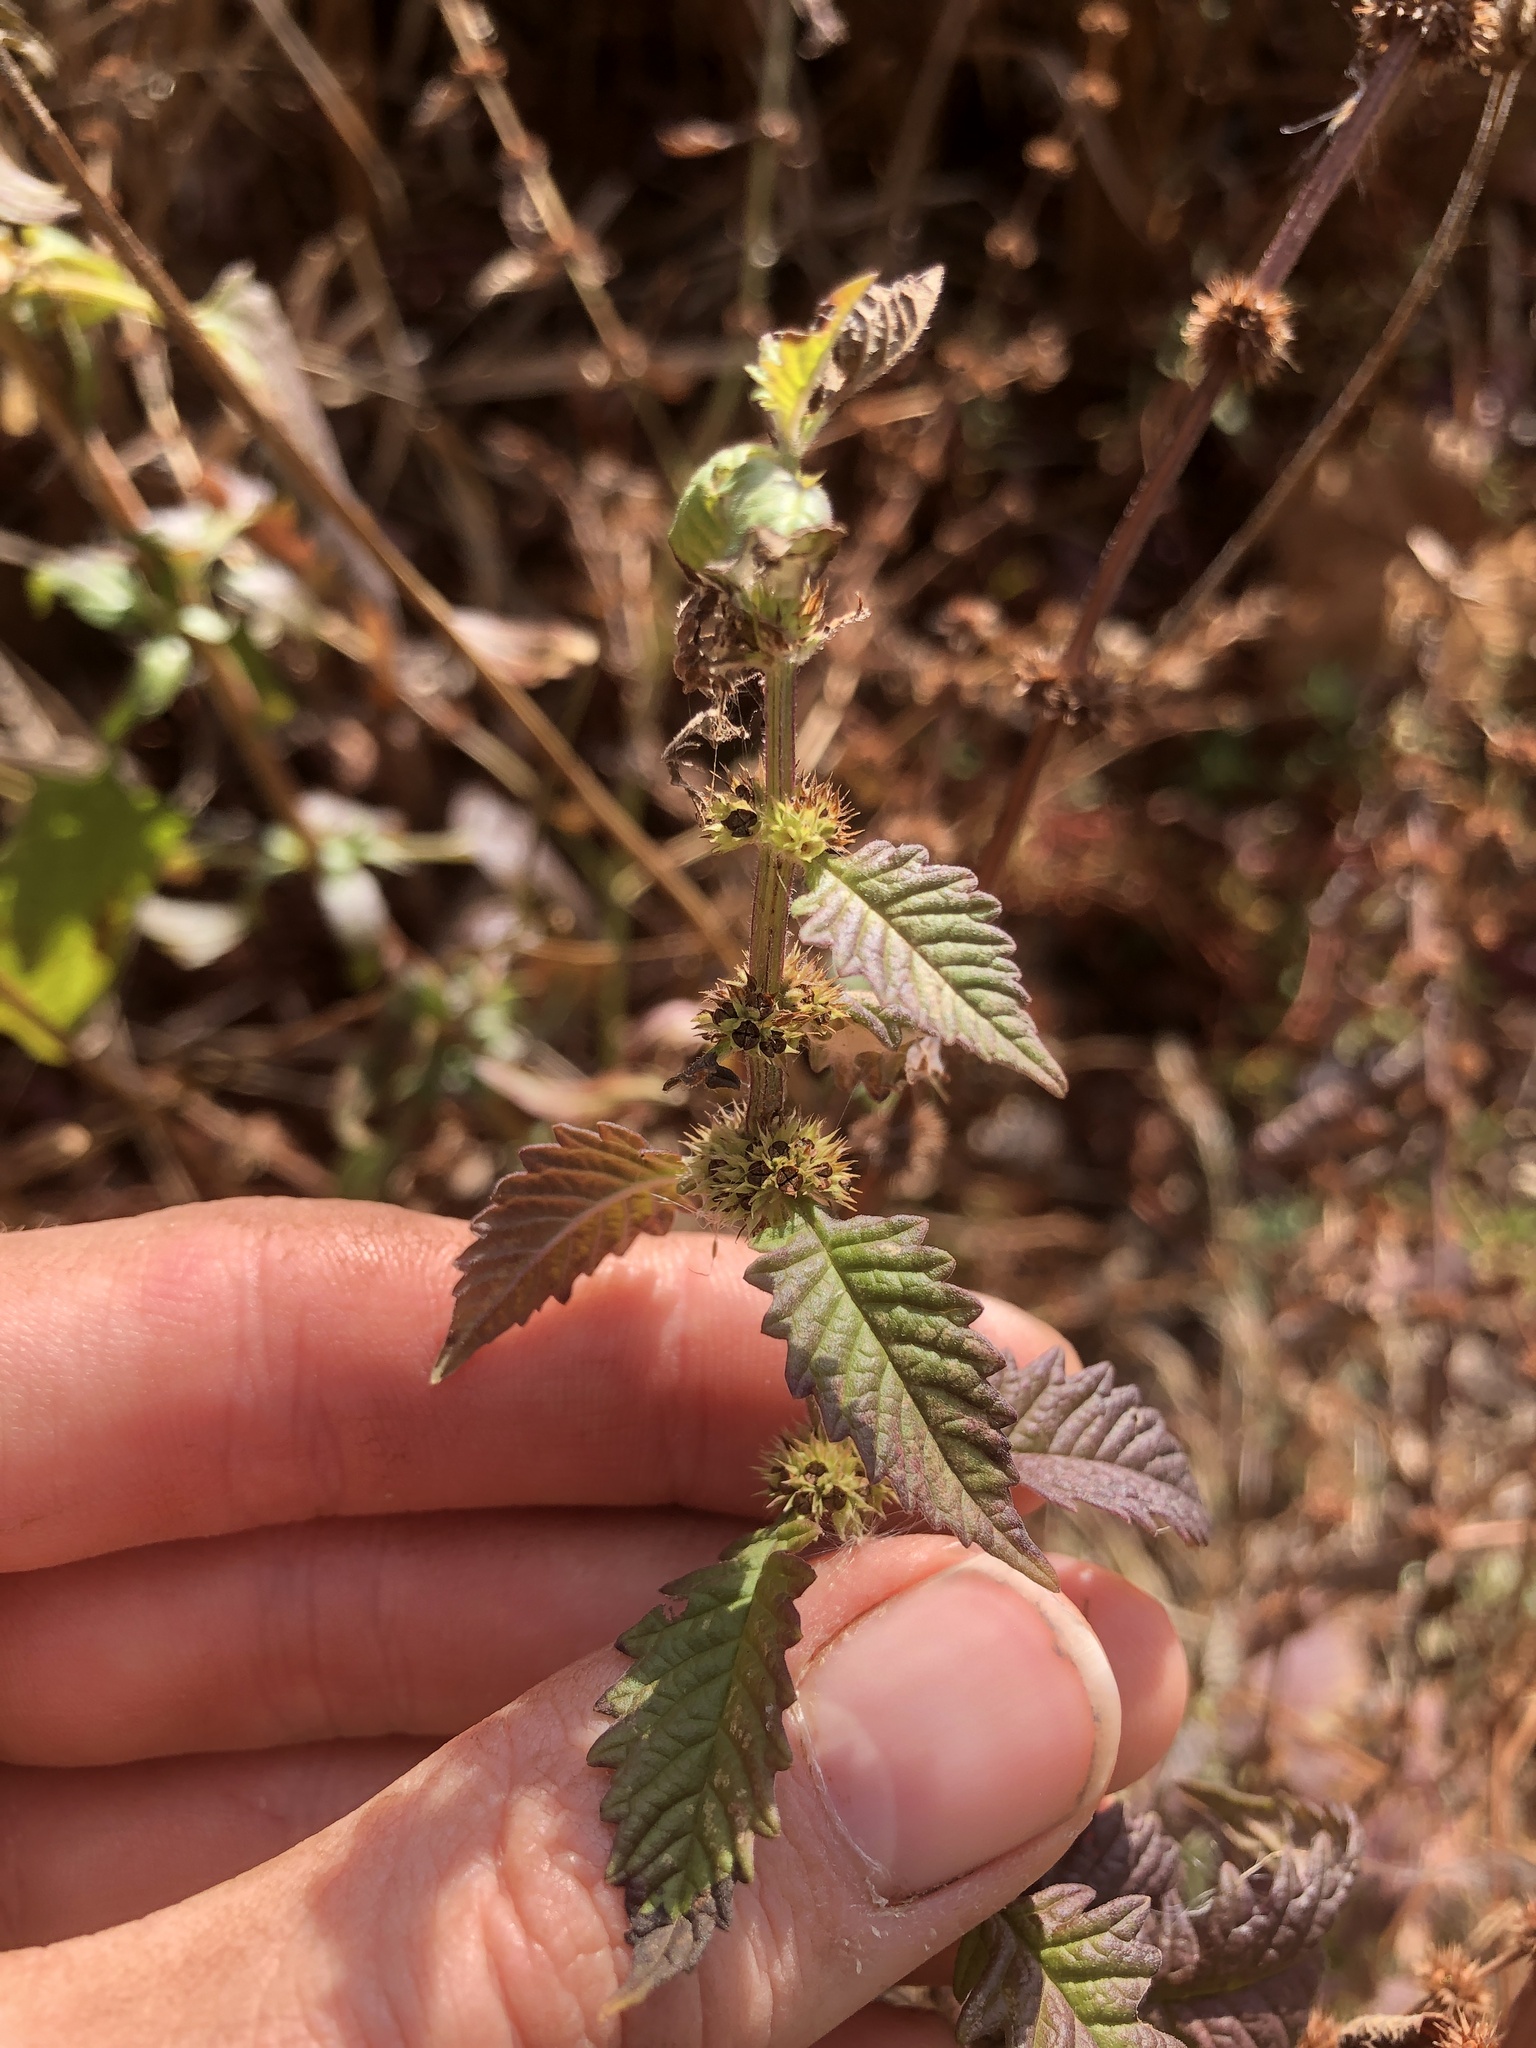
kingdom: Plantae
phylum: Tracheophyta
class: Magnoliopsida
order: Lamiales
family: Lamiaceae
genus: Lycopus
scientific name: Lycopus europaeus
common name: European bugleweed
